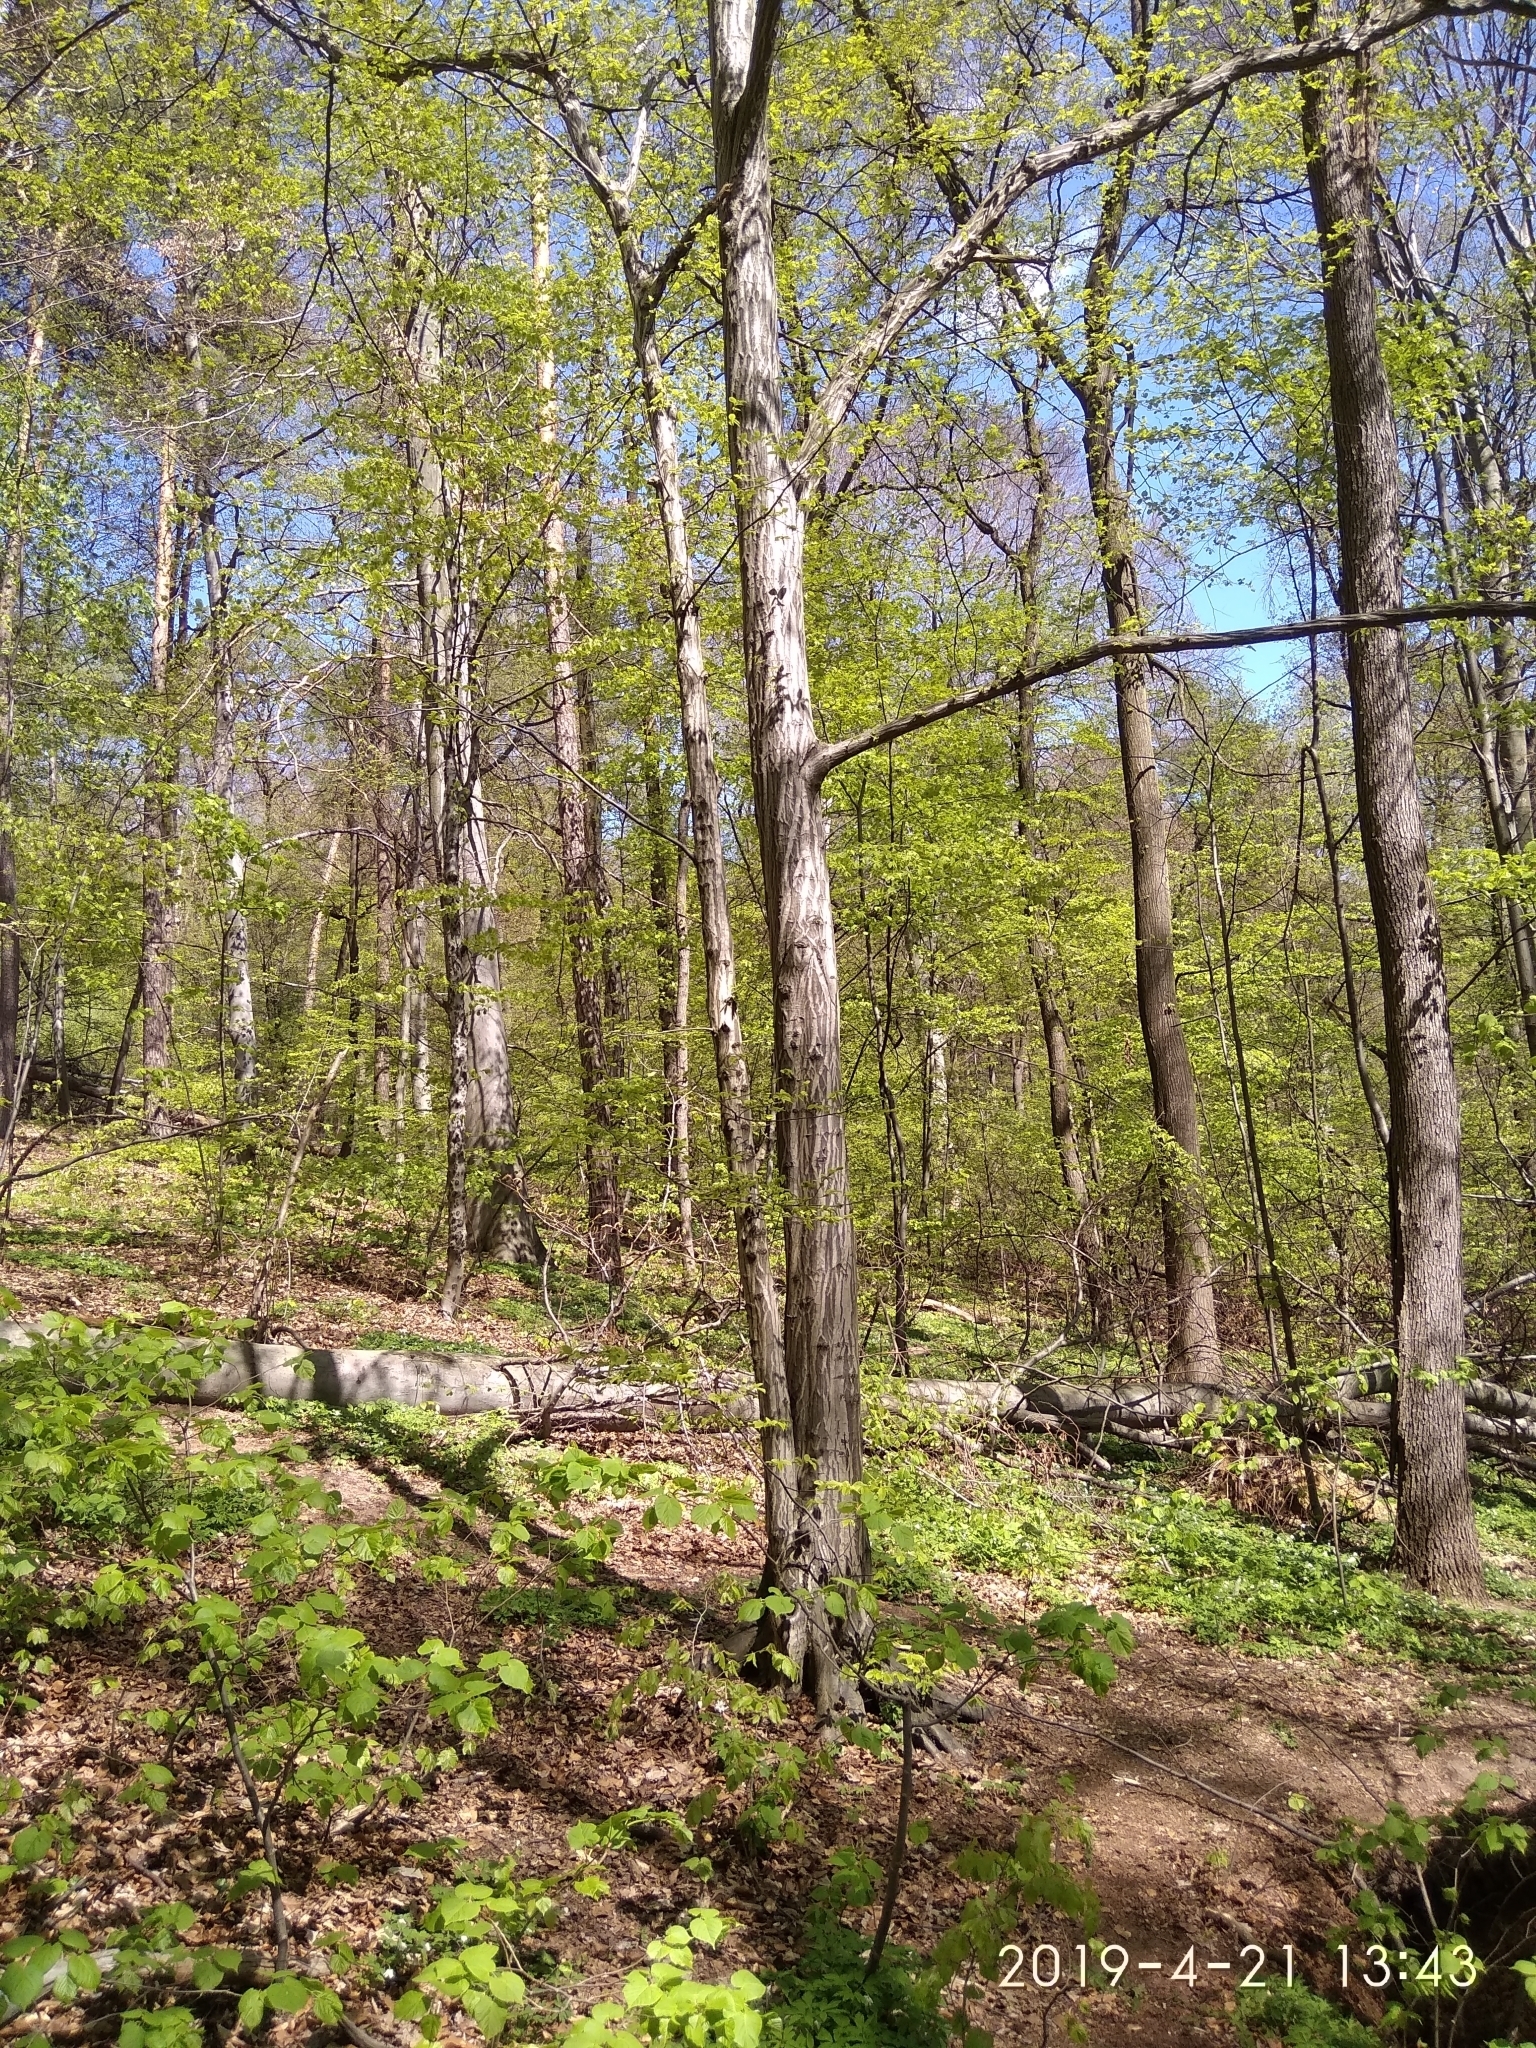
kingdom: Plantae
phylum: Tracheophyta
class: Magnoliopsida
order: Fagales
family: Betulaceae
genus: Carpinus
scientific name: Carpinus betulus
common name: Hornbeam
